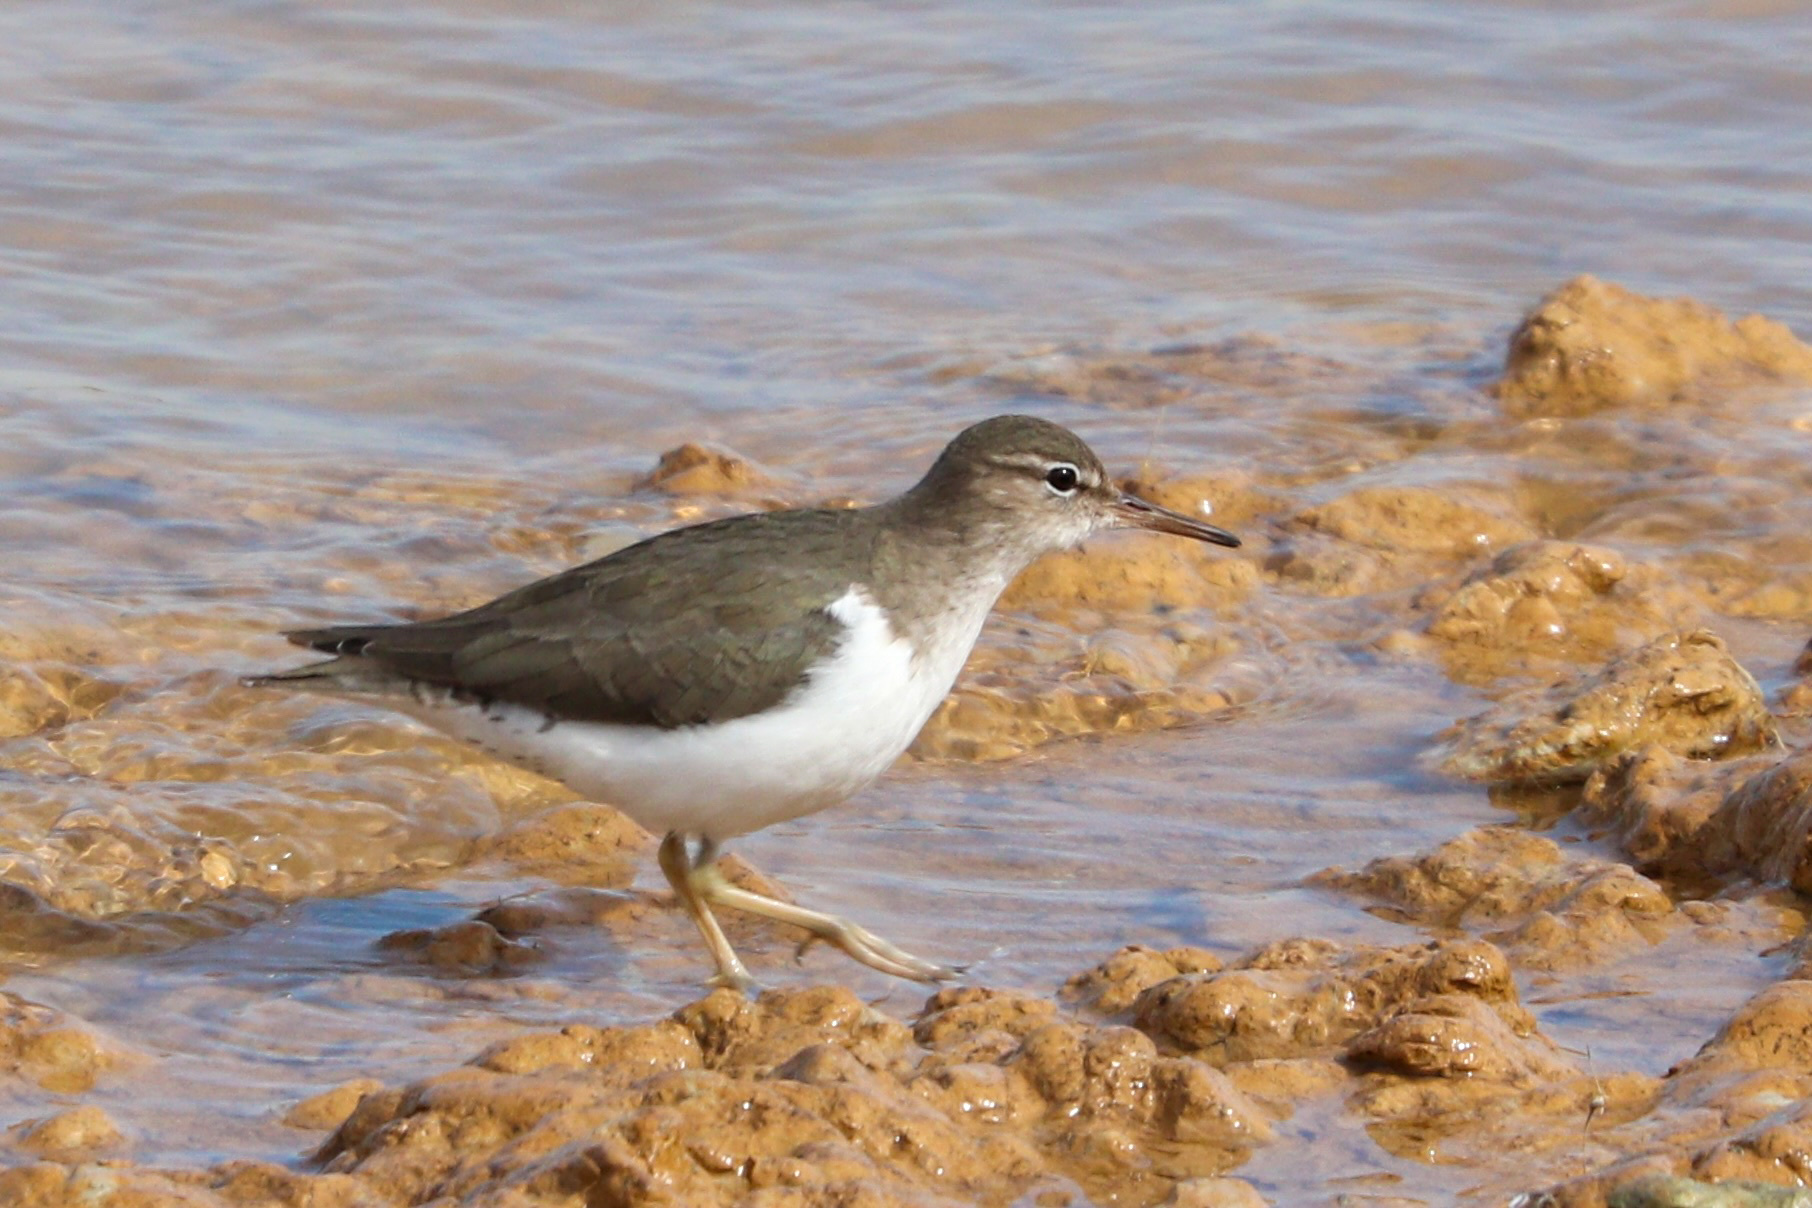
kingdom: Animalia
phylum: Chordata
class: Aves
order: Charadriiformes
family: Scolopacidae
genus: Actitis
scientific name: Actitis macularius
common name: Spotted sandpiper
